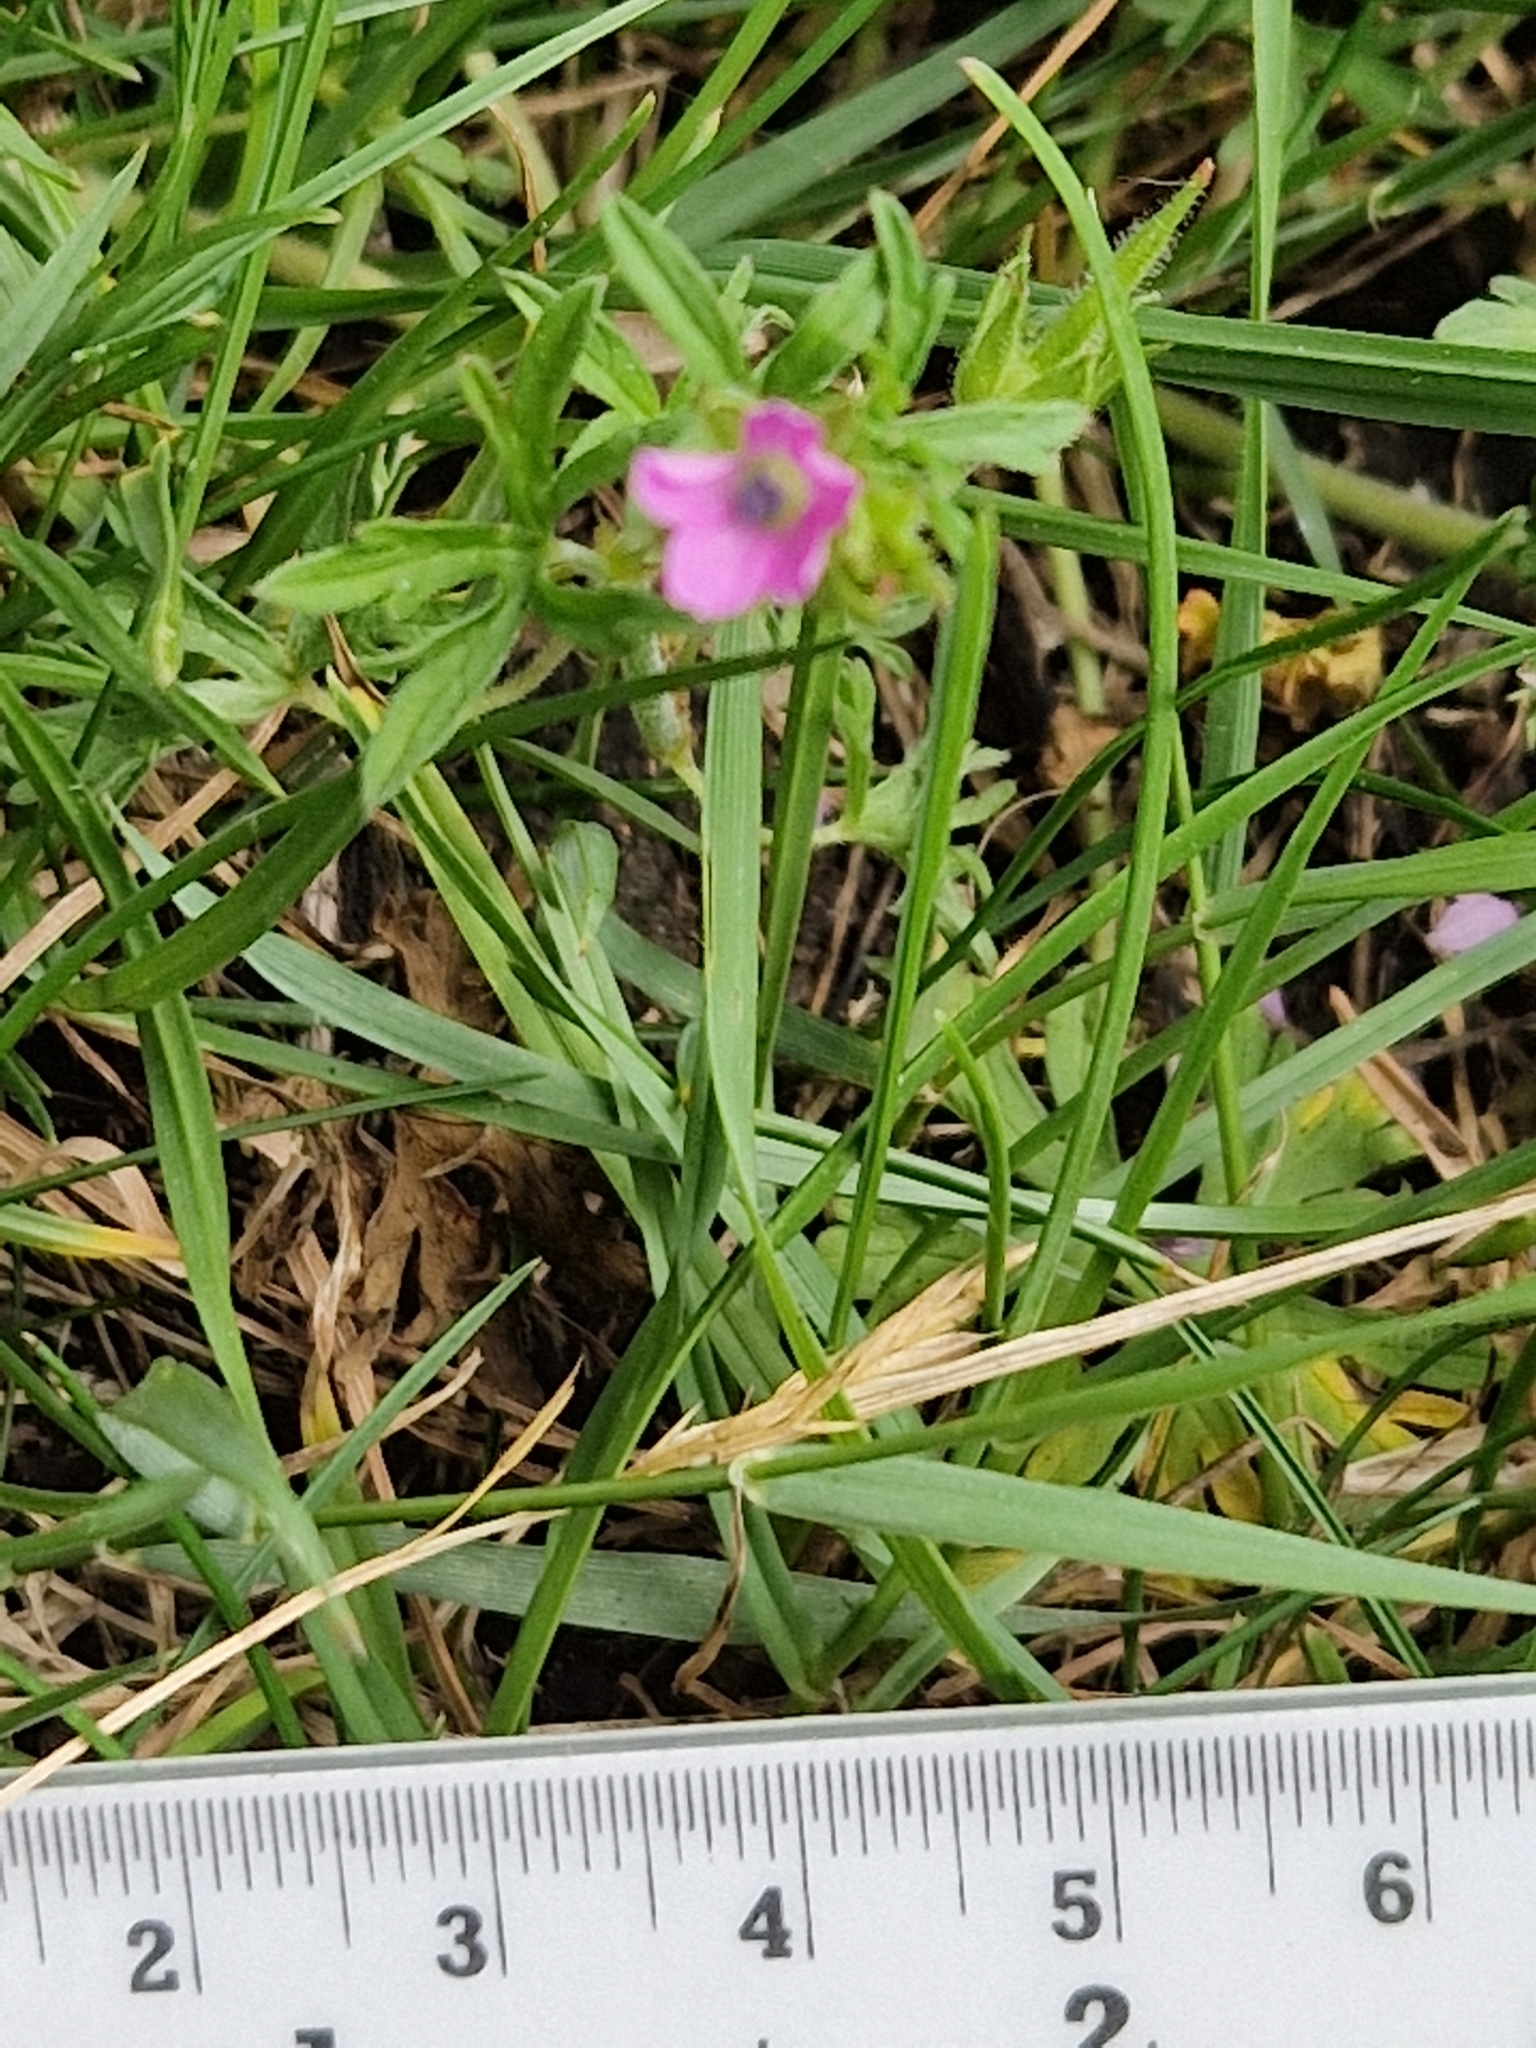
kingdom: Plantae
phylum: Tracheophyta
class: Magnoliopsida
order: Geraniales
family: Geraniaceae
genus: Geranium
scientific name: Geranium dissectum
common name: Cut-leaved crane's-bill
